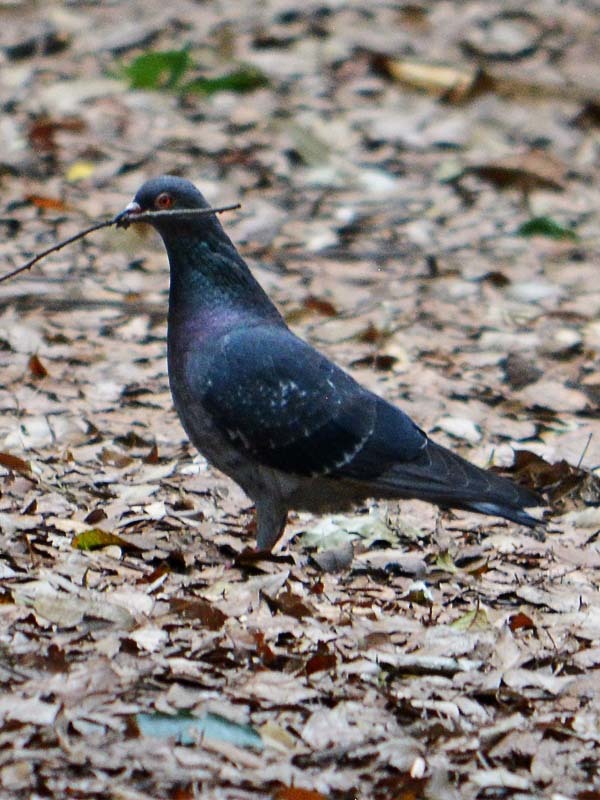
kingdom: Animalia
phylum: Chordata
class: Aves
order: Columbiformes
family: Columbidae
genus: Columba
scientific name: Columba livia
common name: Rock pigeon
